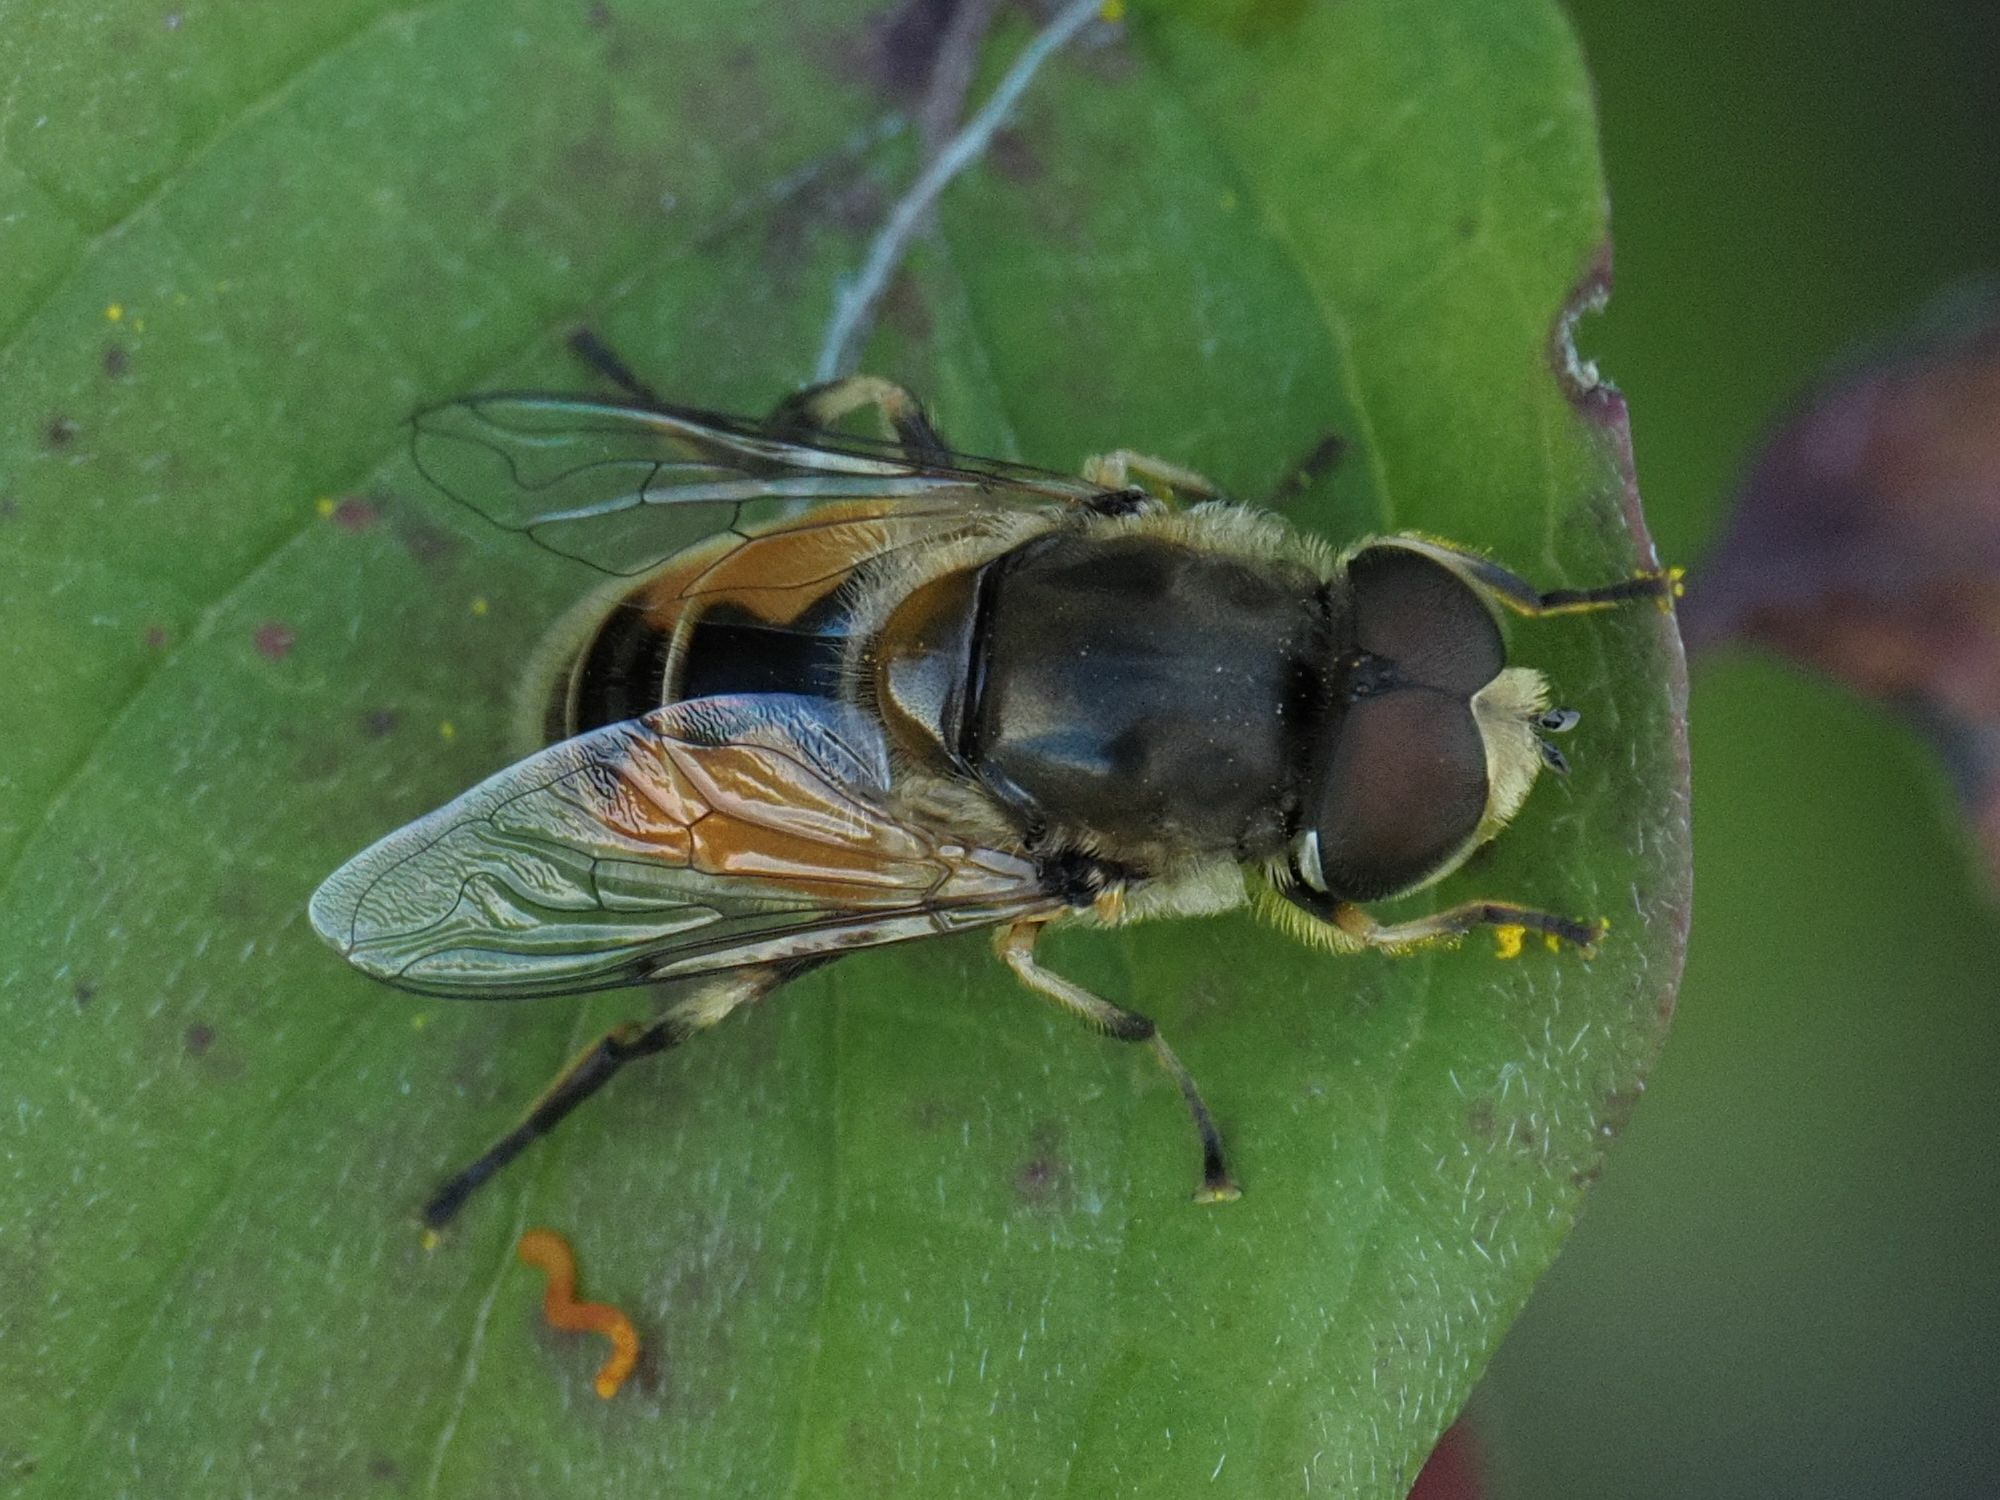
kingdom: Animalia
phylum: Arthropoda
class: Insecta
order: Diptera
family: Syrphidae
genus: Eristalis
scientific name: Eristalis arbustorum
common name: Hover fly
